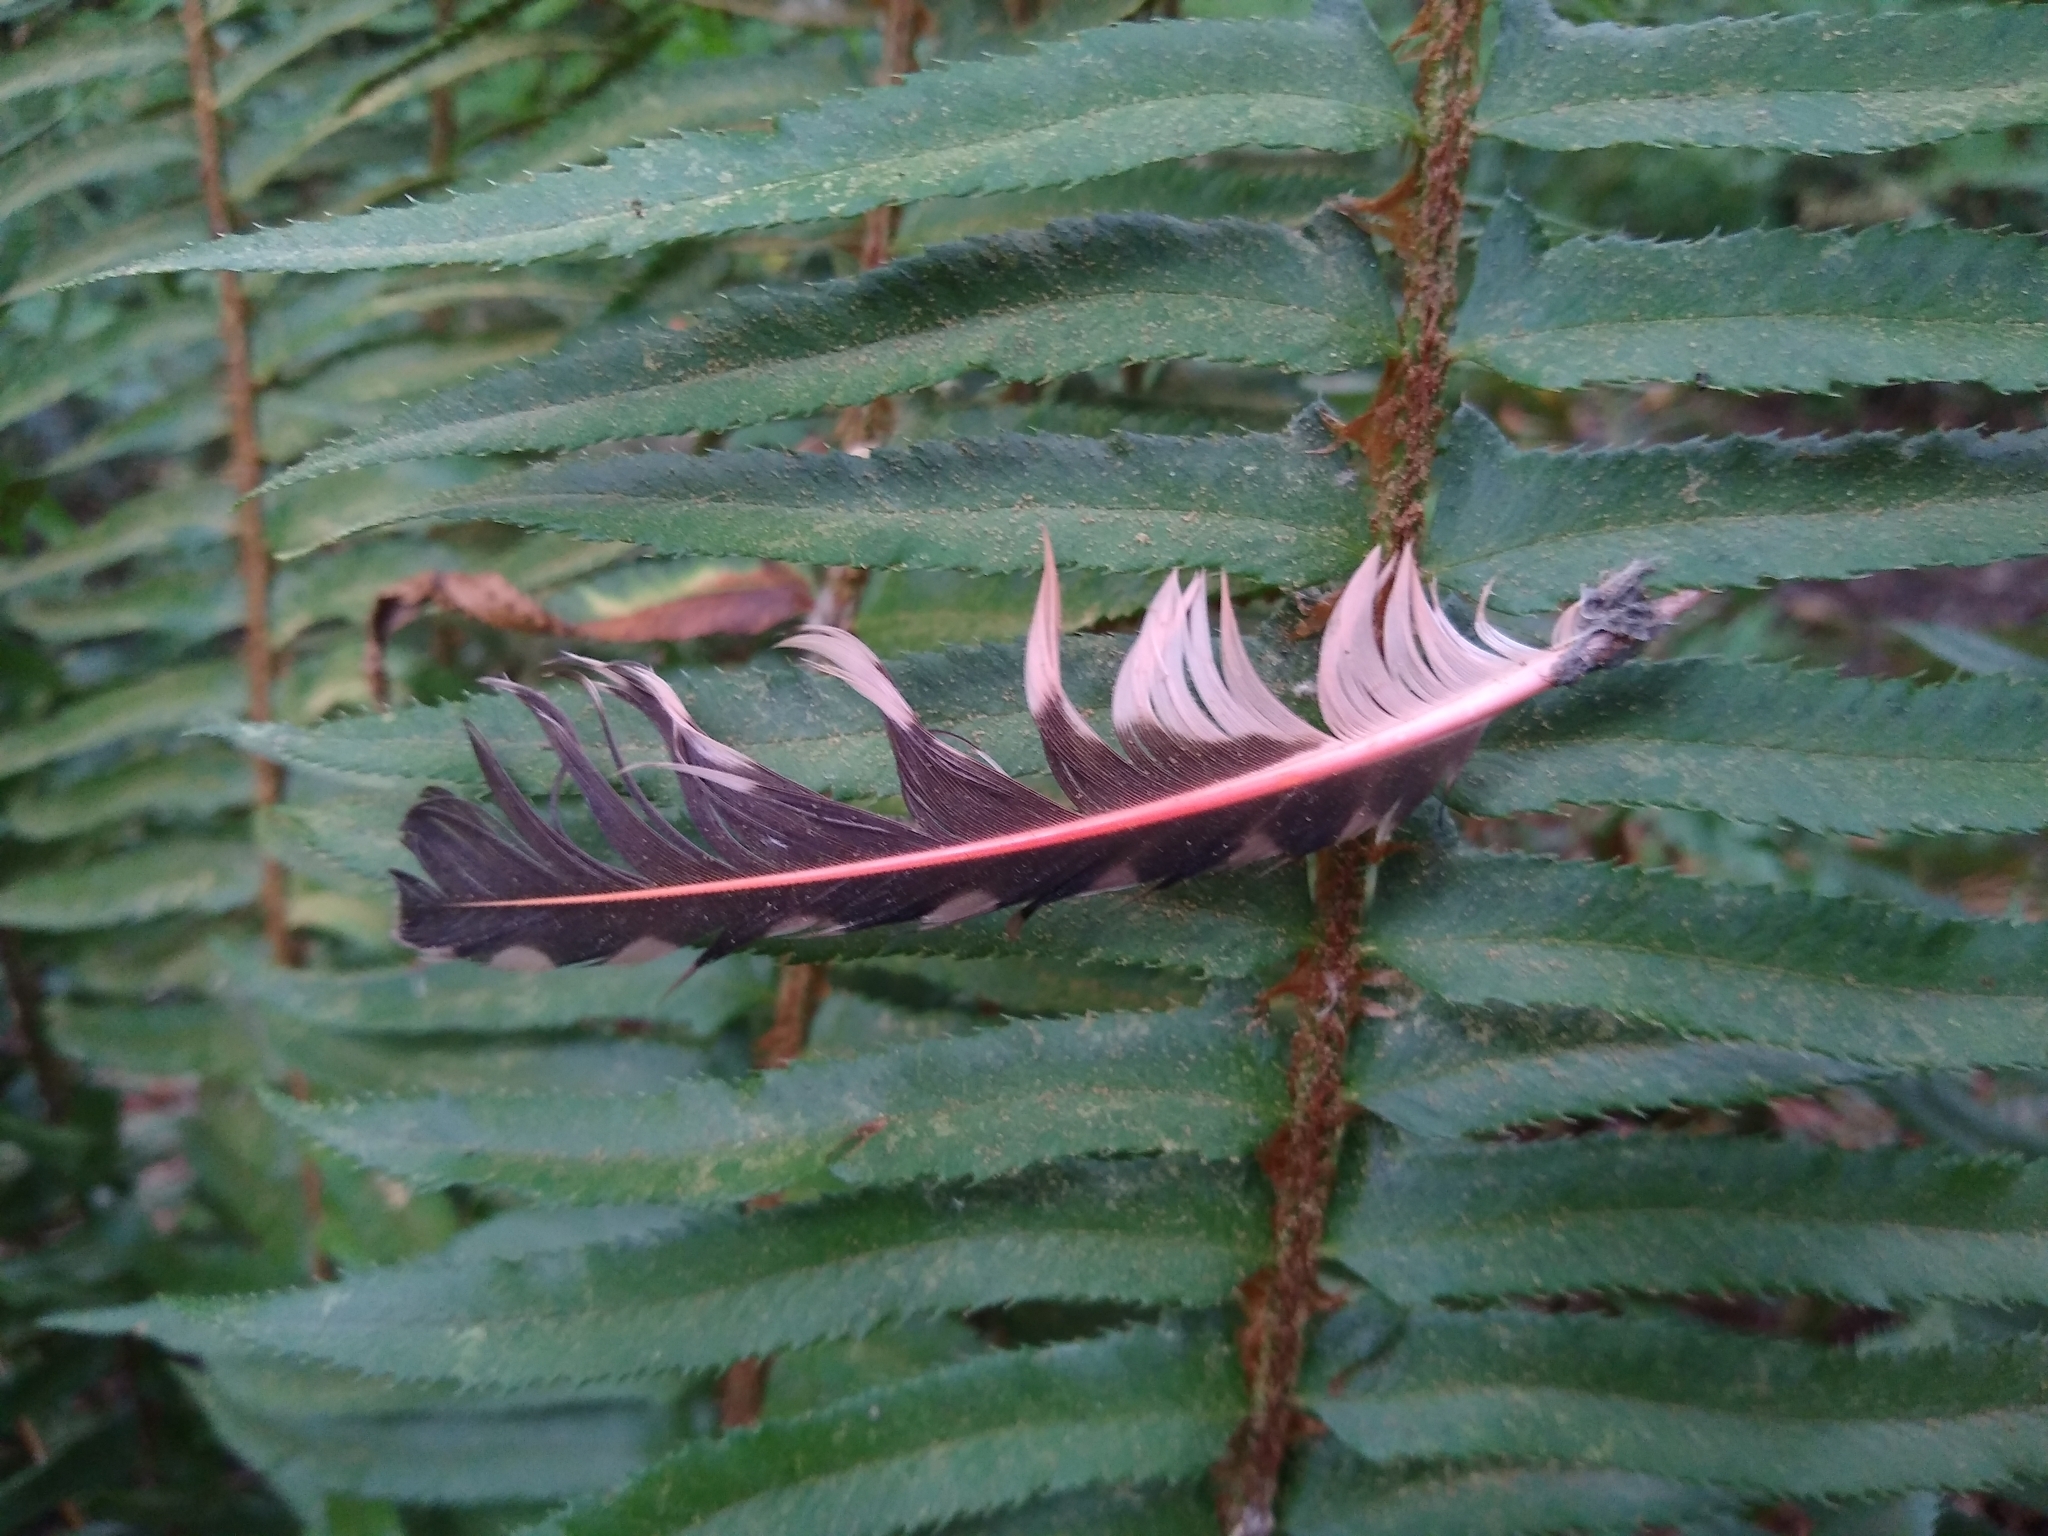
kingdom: Animalia
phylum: Chordata
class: Aves
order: Piciformes
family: Picidae
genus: Colaptes
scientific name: Colaptes auratus
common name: Northern flicker
